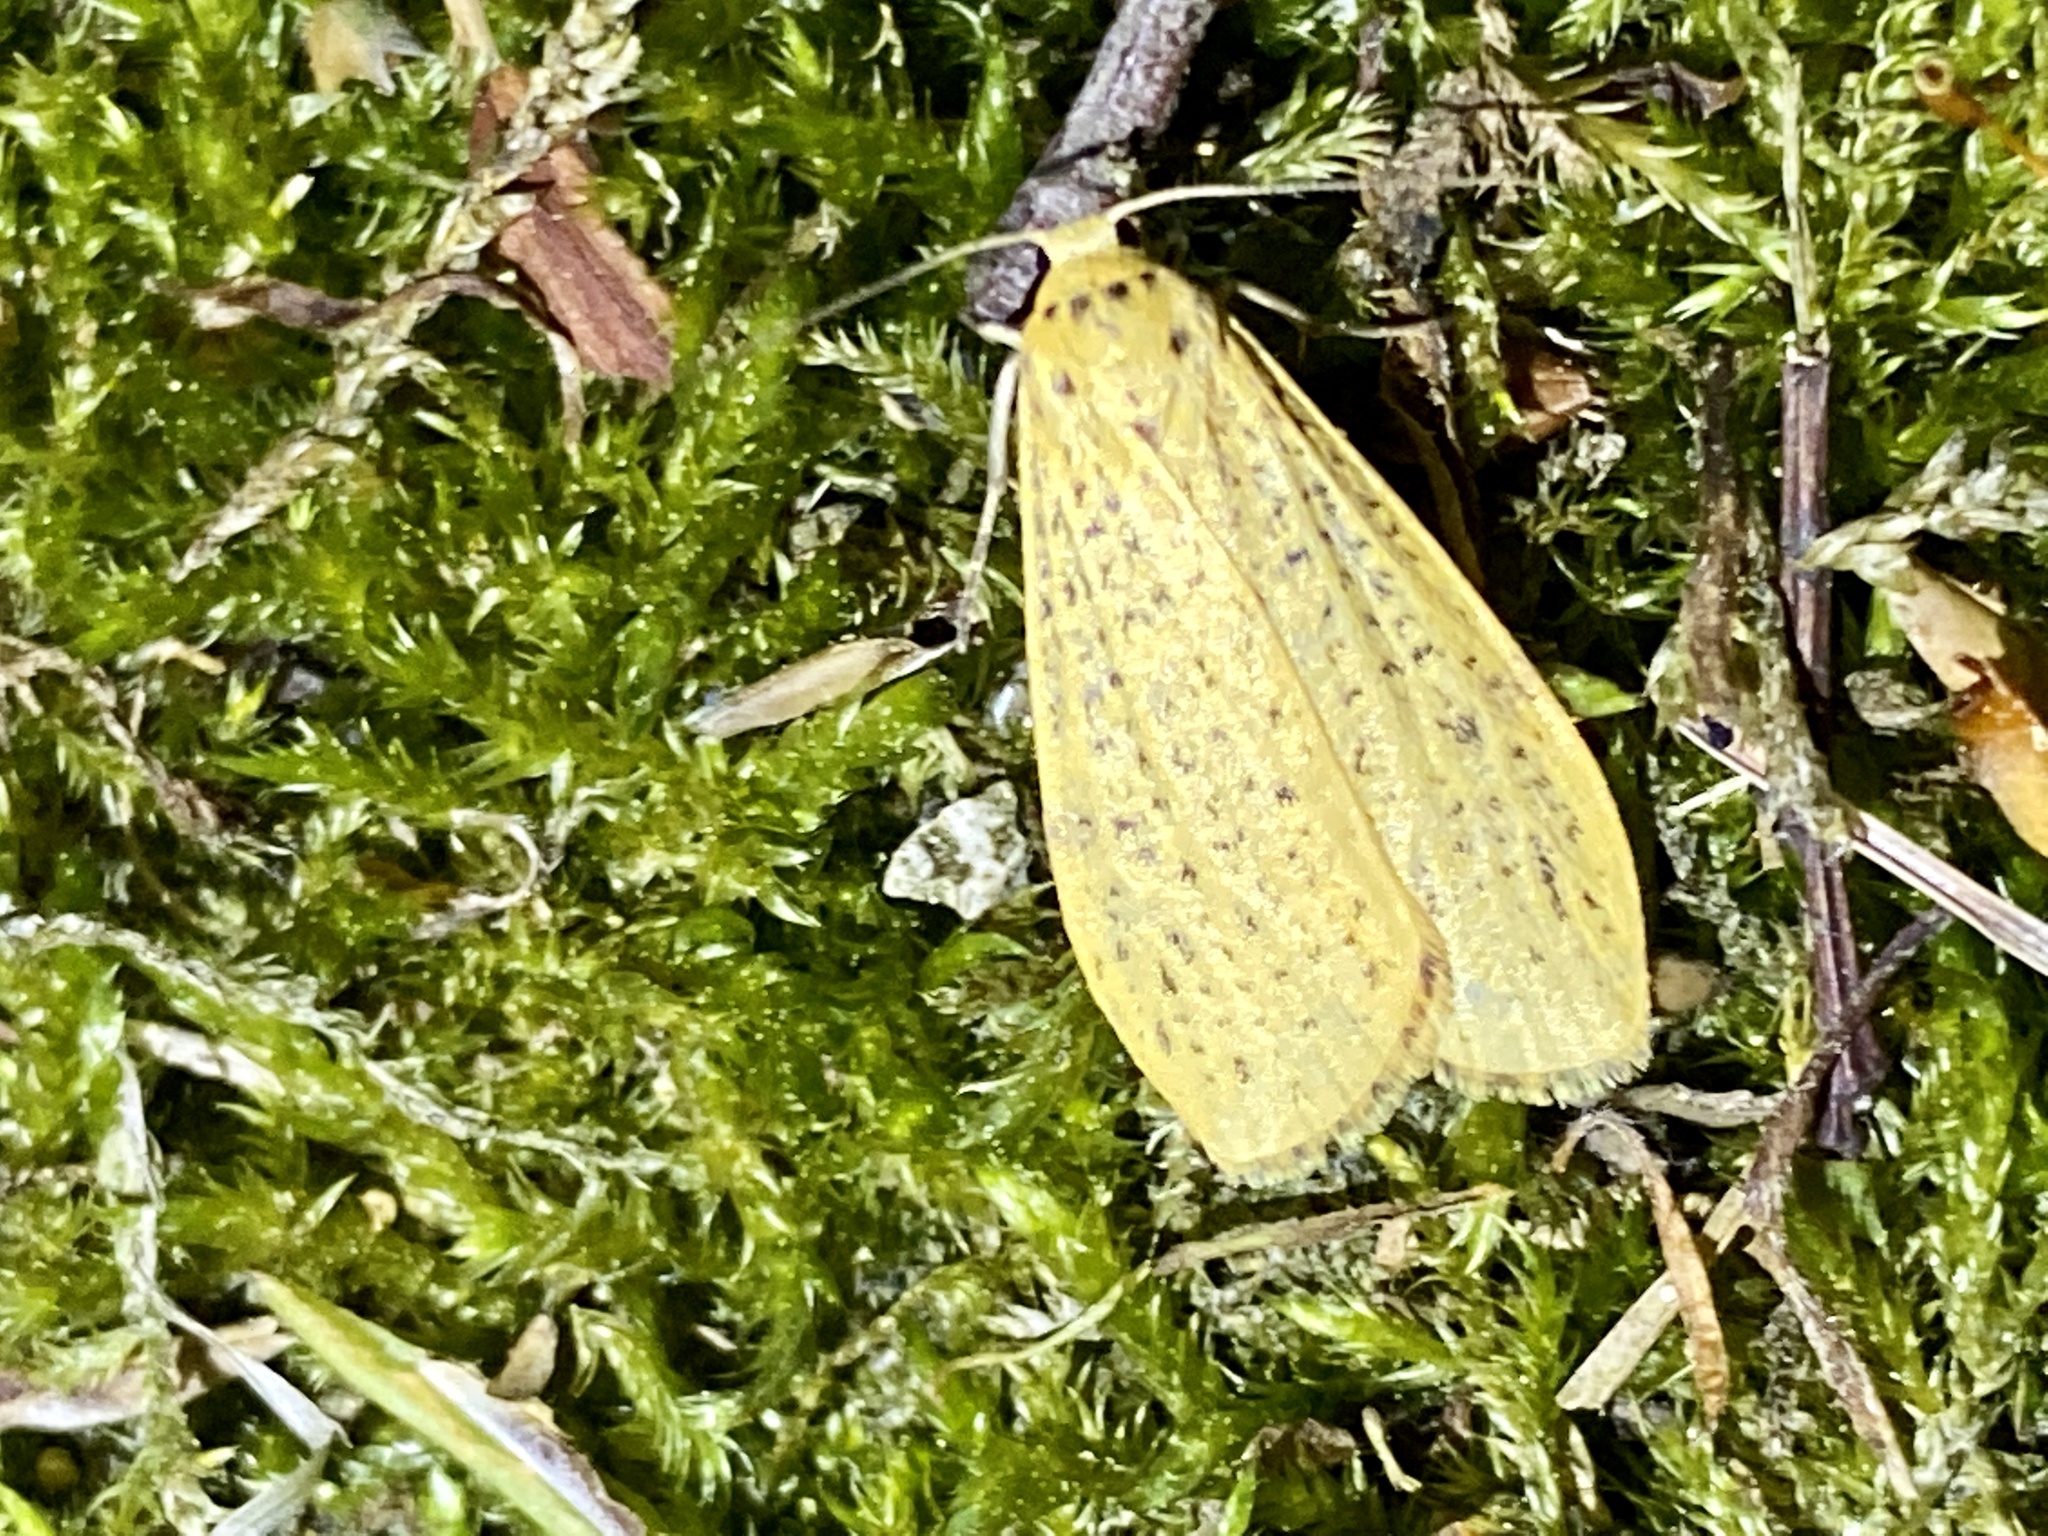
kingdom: Animalia
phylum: Arthropoda
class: Insecta
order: Lepidoptera
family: Erebidae
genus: Dolgoma
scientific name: Dolgoma cribrata
